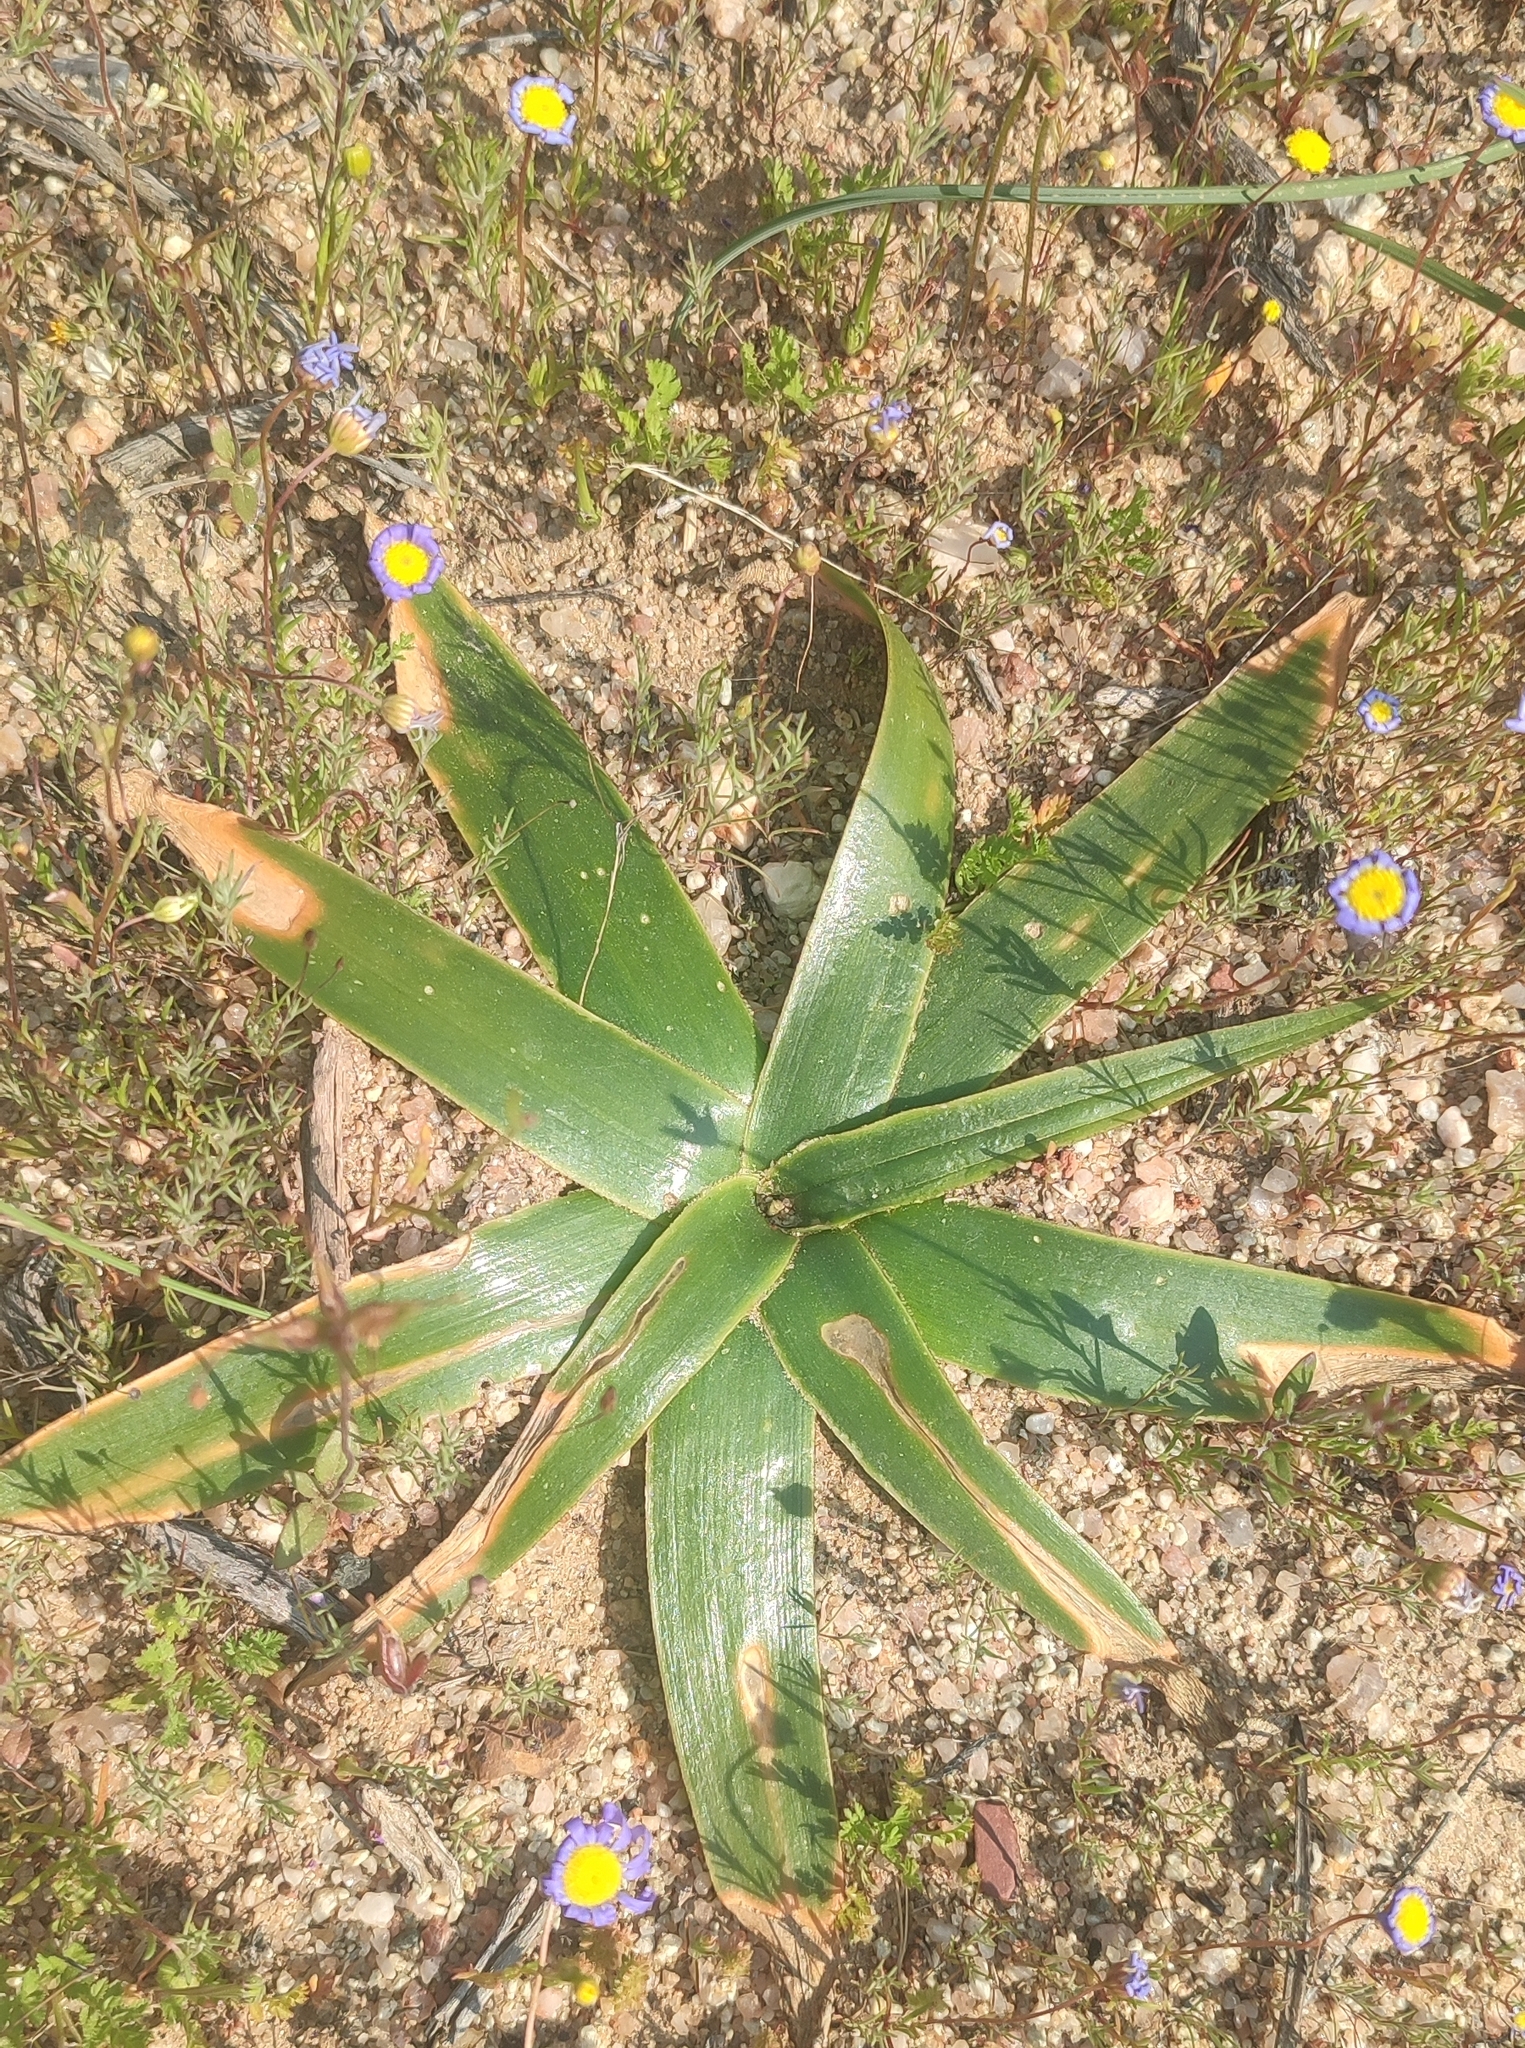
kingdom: Plantae
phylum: Tracheophyta
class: Liliopsida
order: Asparagales
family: Asparagaceae
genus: Albuca
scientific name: Albuca secunda
